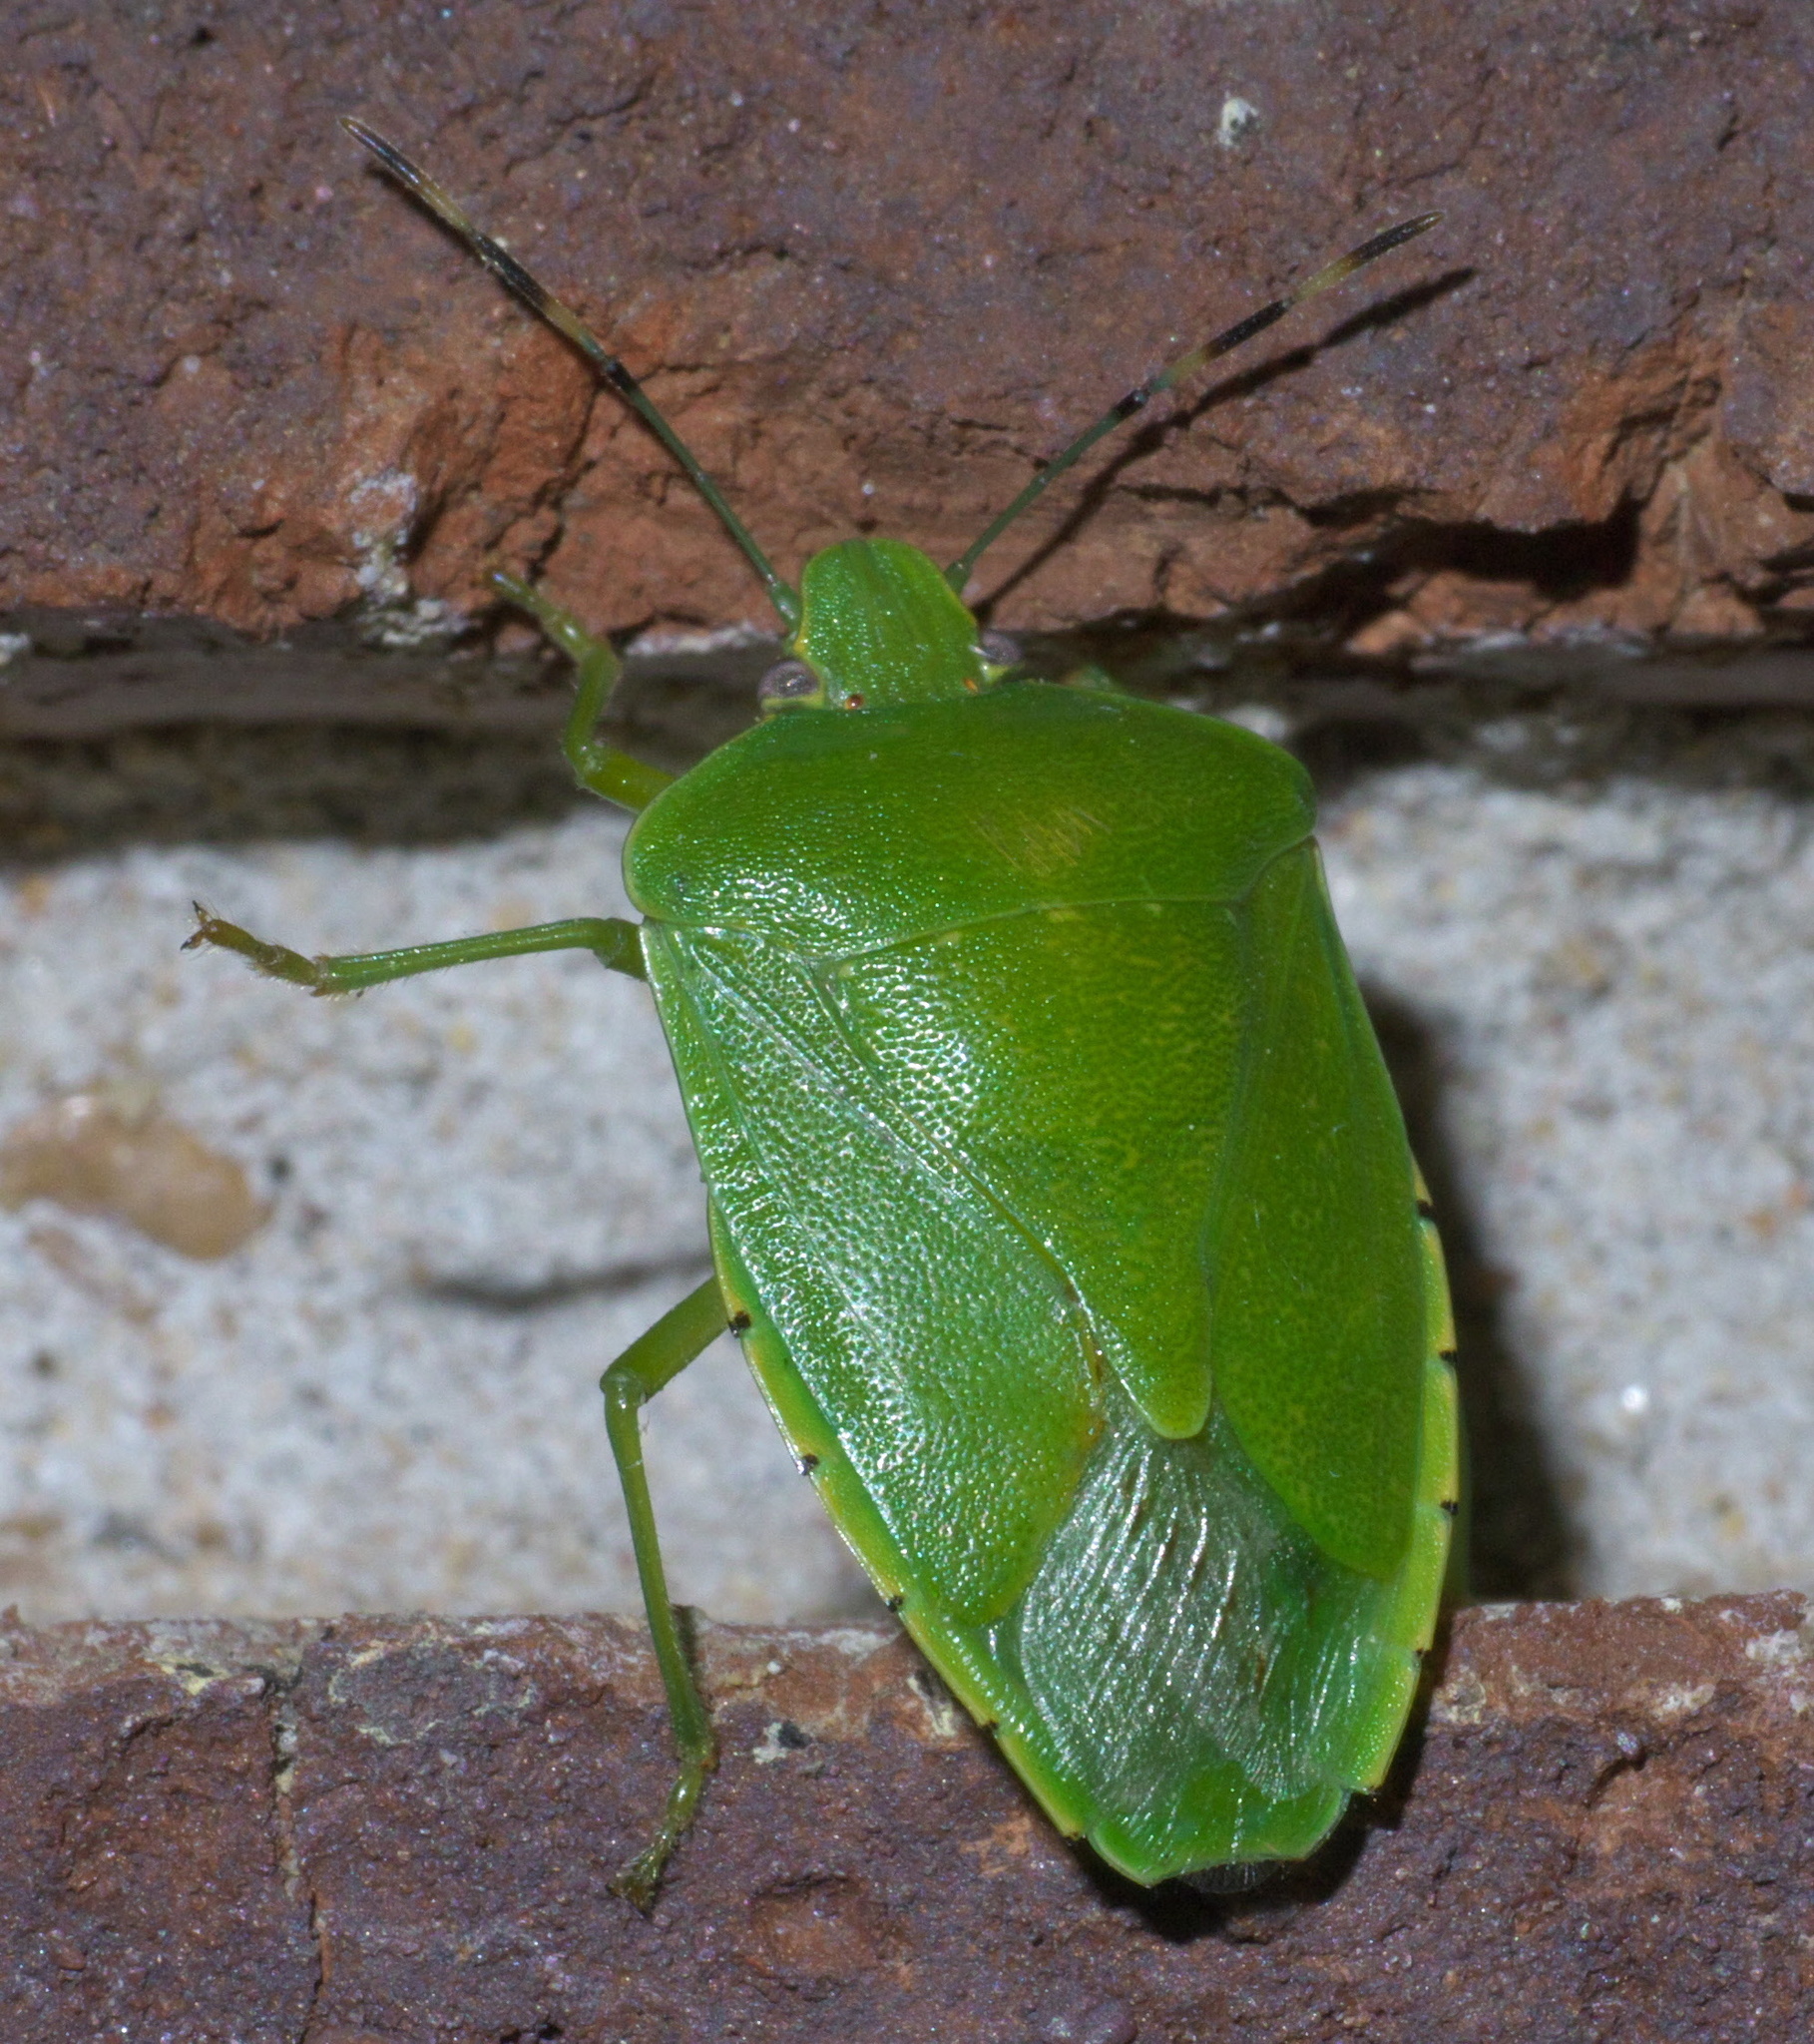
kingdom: Animalia
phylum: Arthropoda
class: Insecta
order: Hemiptera
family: Pentatomidae
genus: Chinavia
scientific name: Chinavia hilaris
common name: Green stink bug
